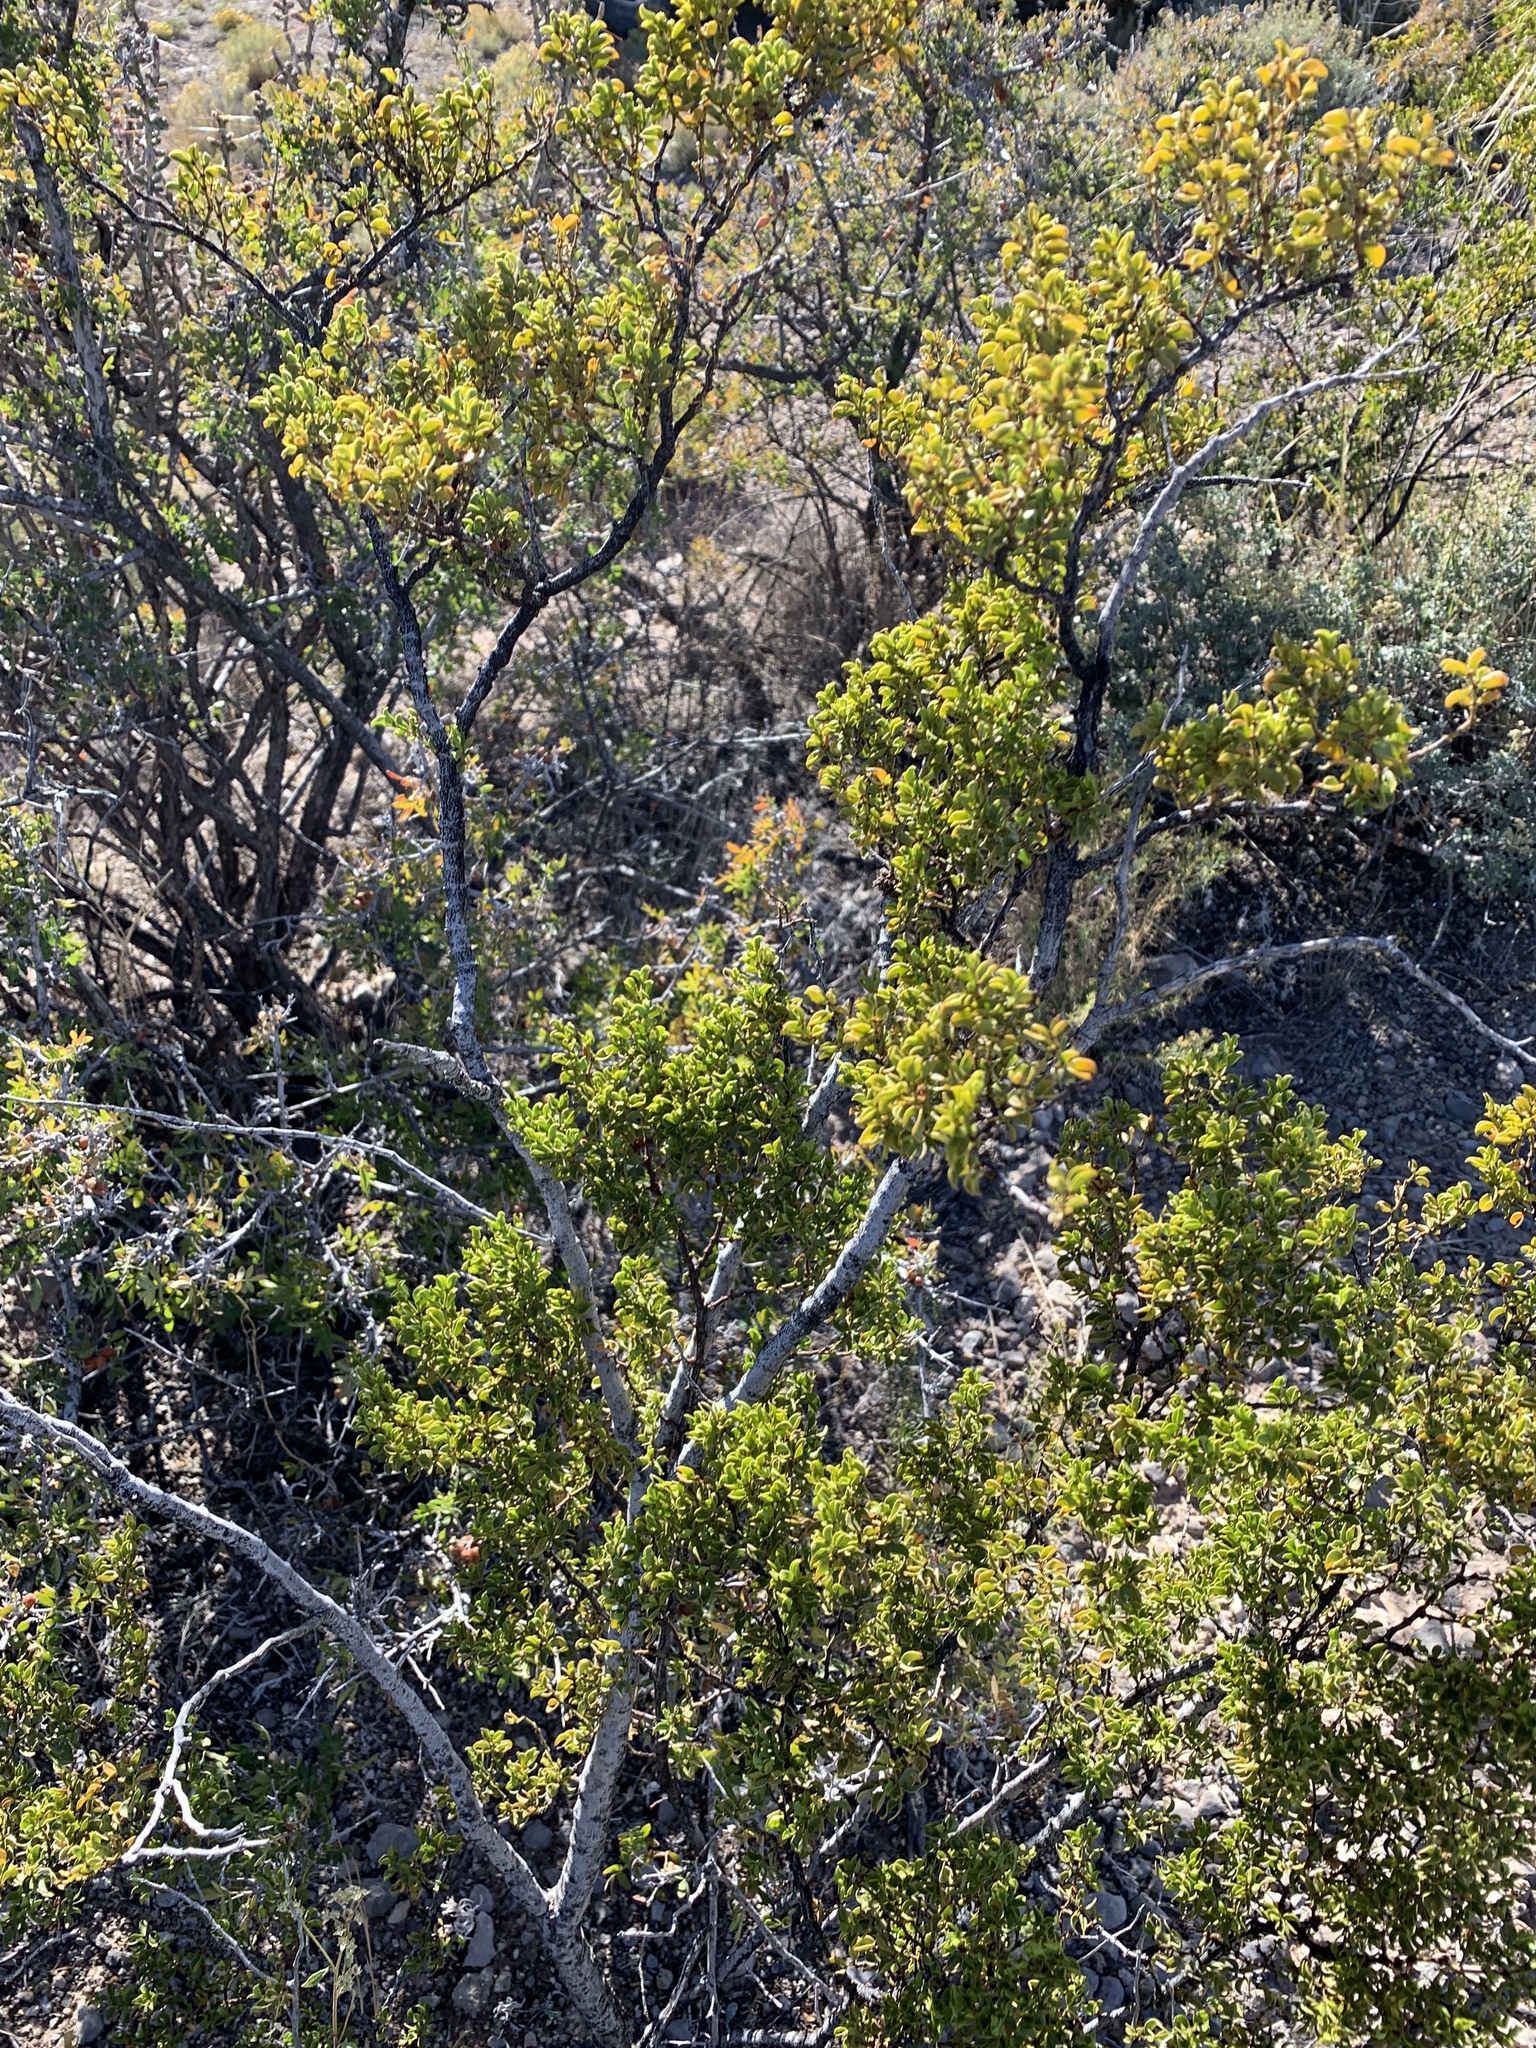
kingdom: Plantae
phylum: Tracheophyta
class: Magnoliopsida
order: Zygophyllales
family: Zygophyllaceae
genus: Larrea
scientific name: Larrea tridentata
